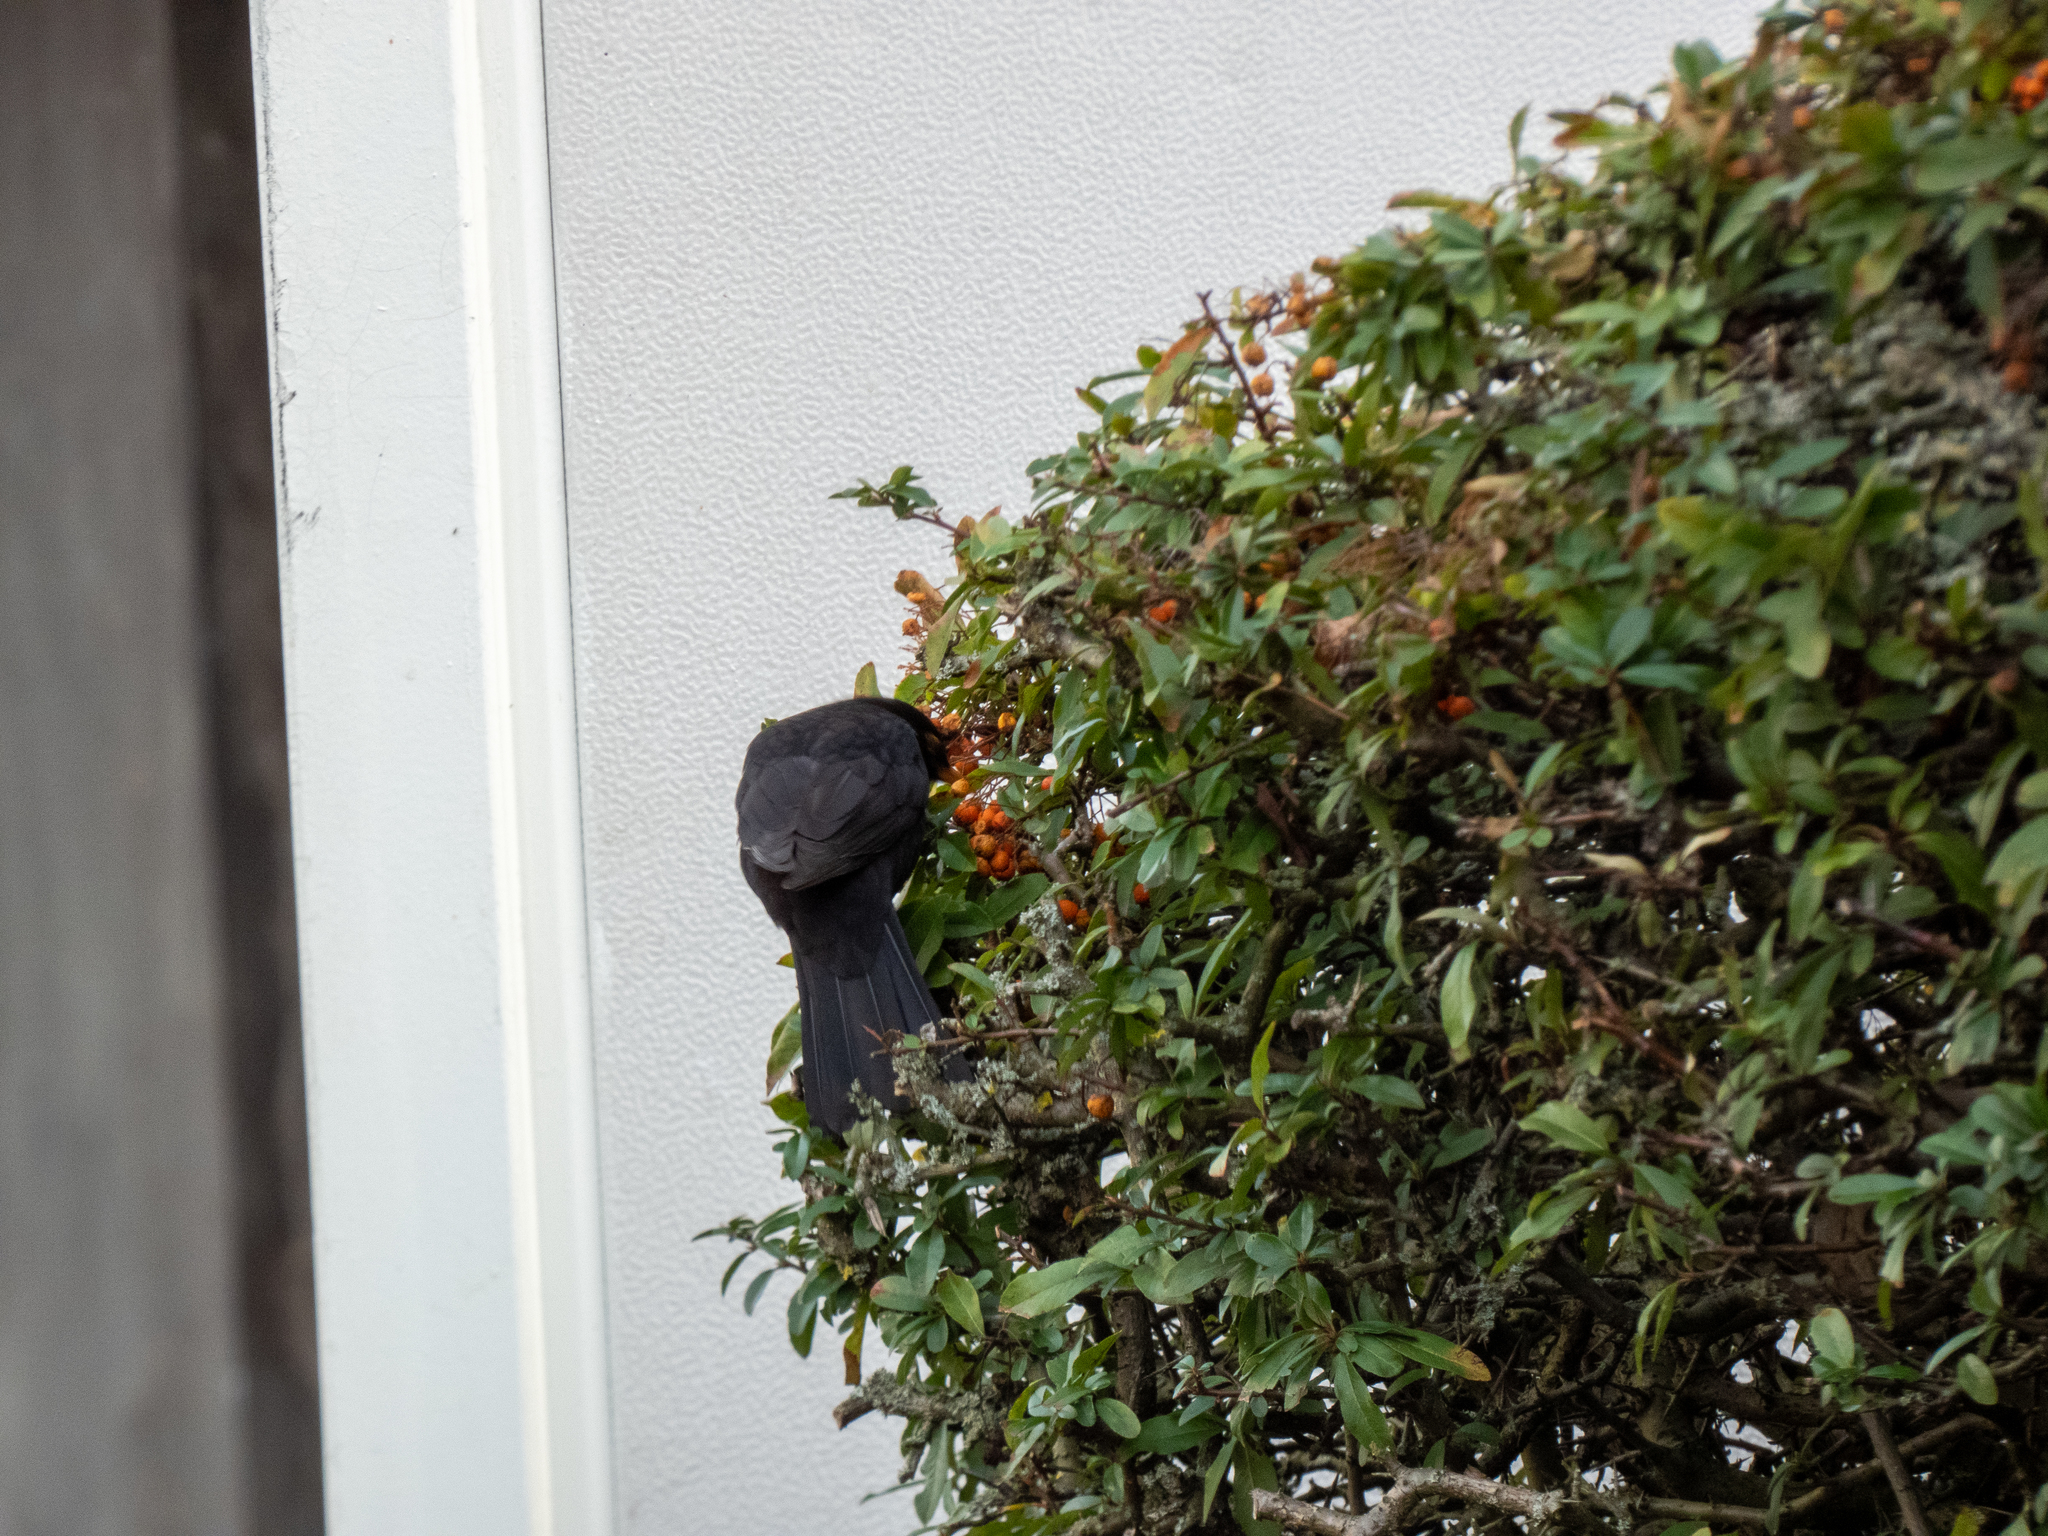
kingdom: Animalia
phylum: Chordata
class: Aves
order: Passeriformes
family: Turdidae
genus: Turdus
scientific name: Turdus merula
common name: Common blackbird
